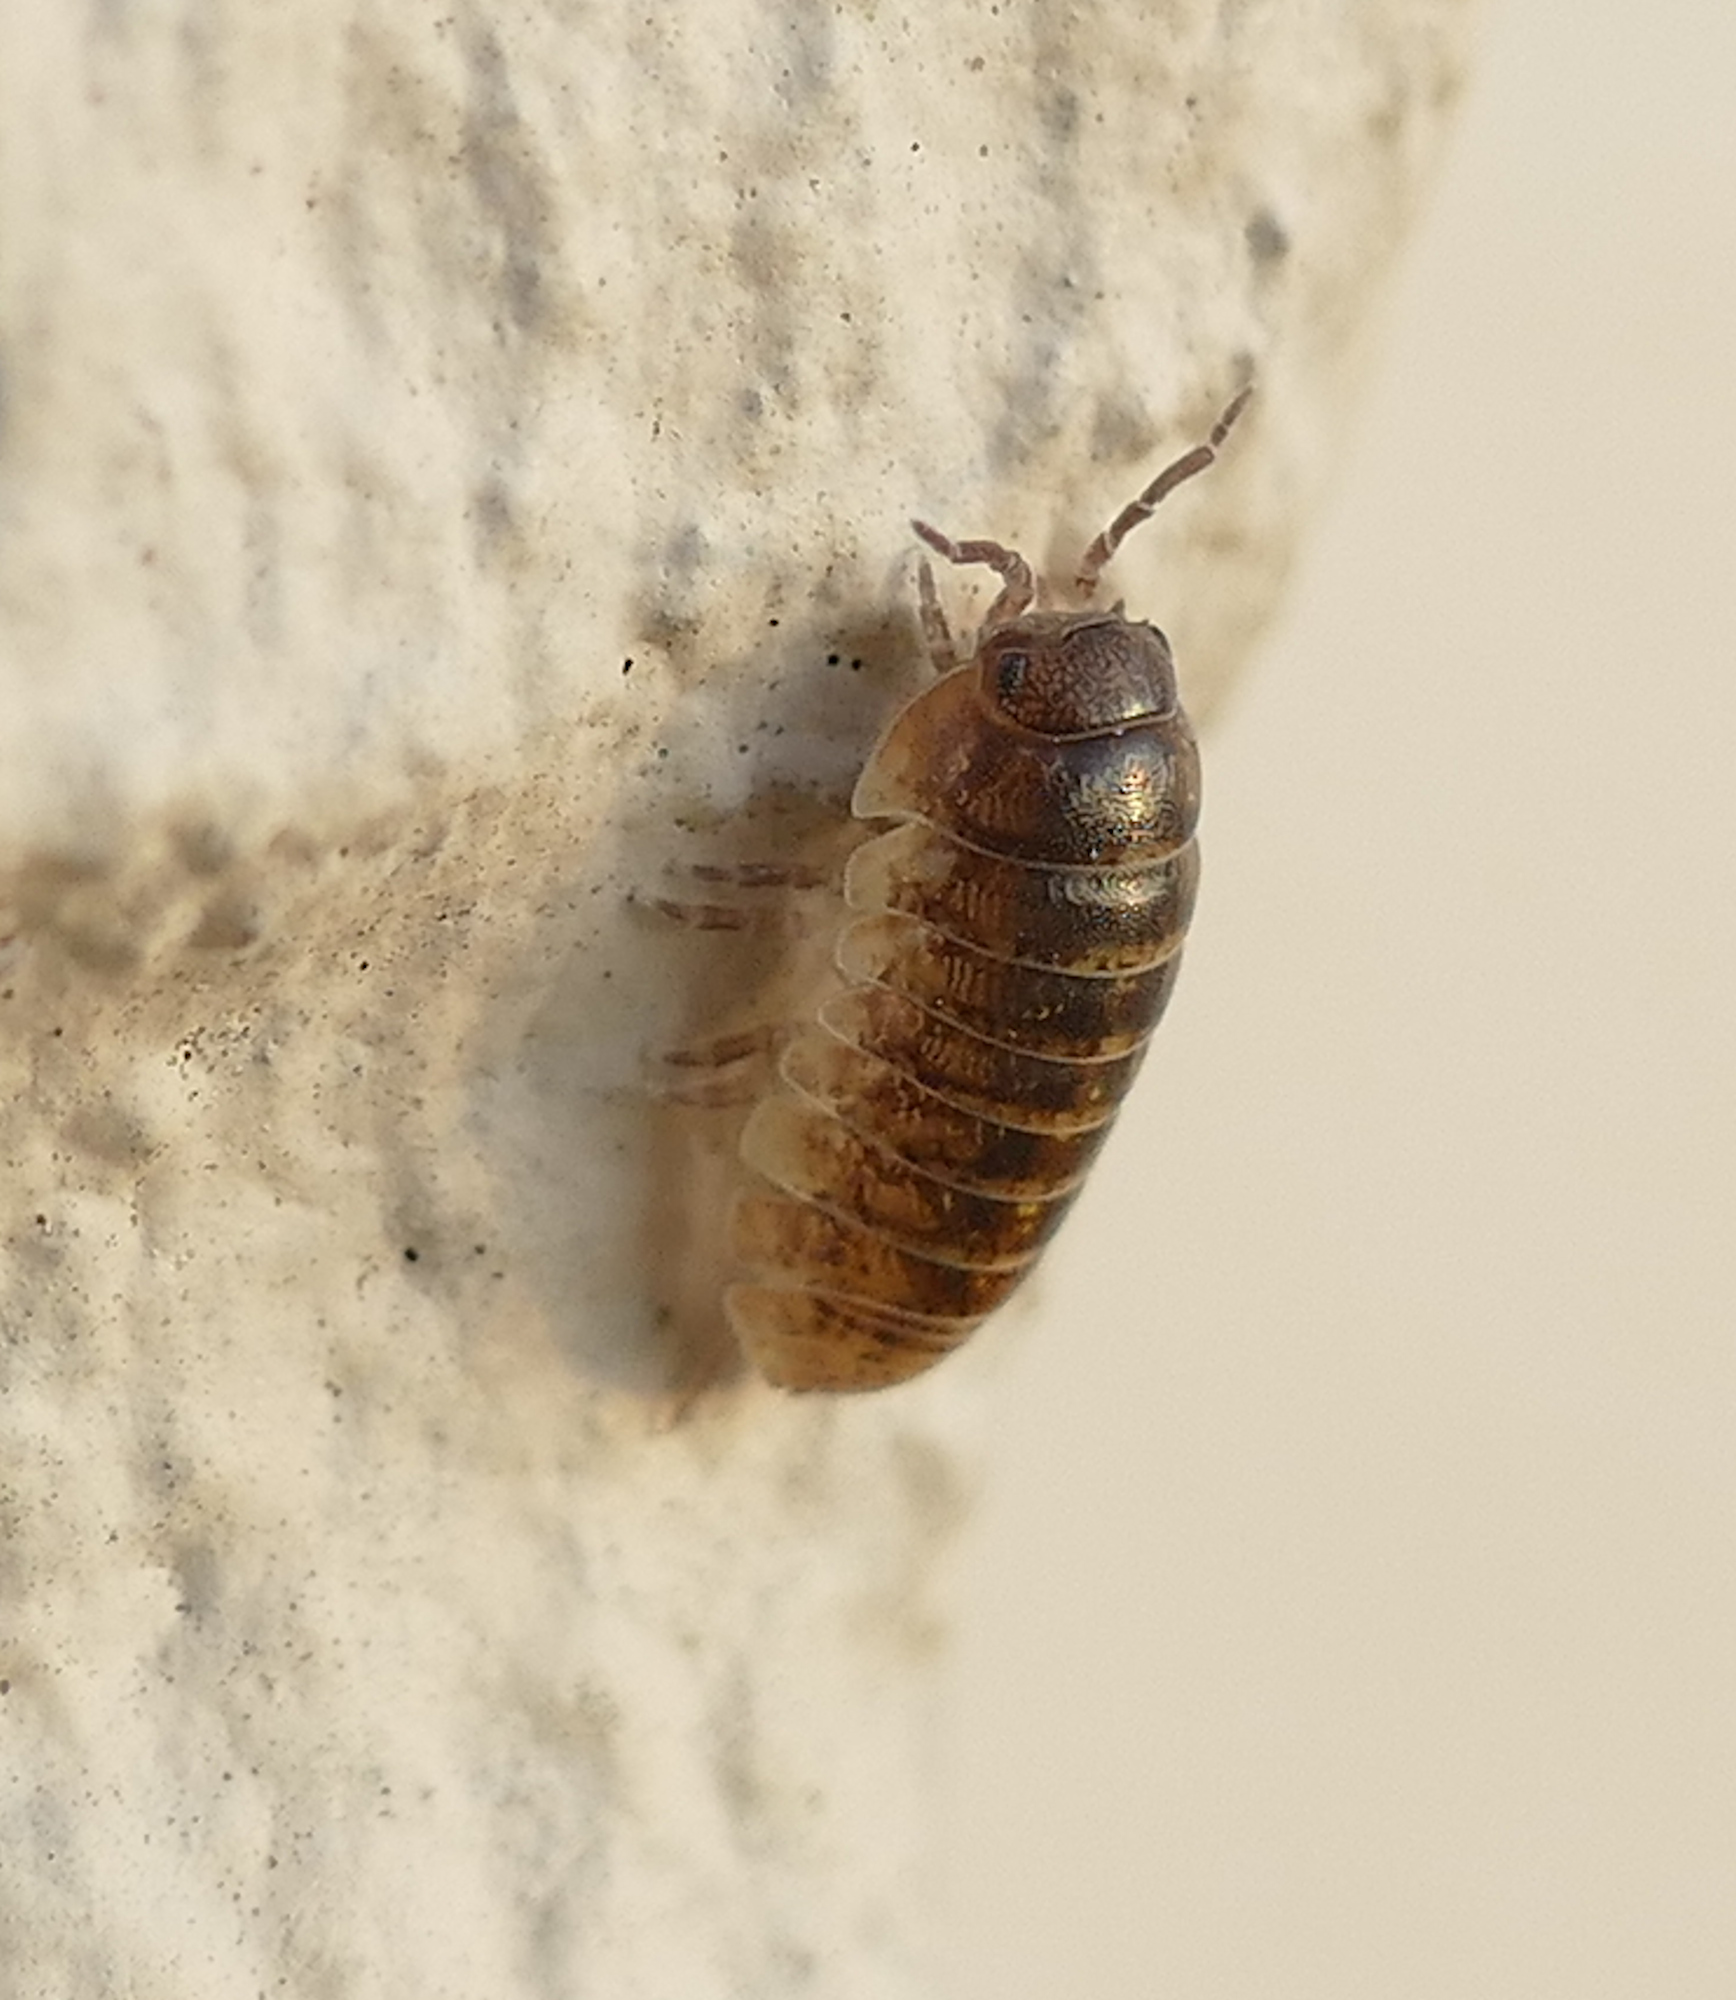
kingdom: Animalia
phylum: Arthropoda
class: Malacostraca
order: Isopoda
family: Armadillidiidae
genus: Armadillidium
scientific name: Armadillidium vulgare
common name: Common pill woodlouse
